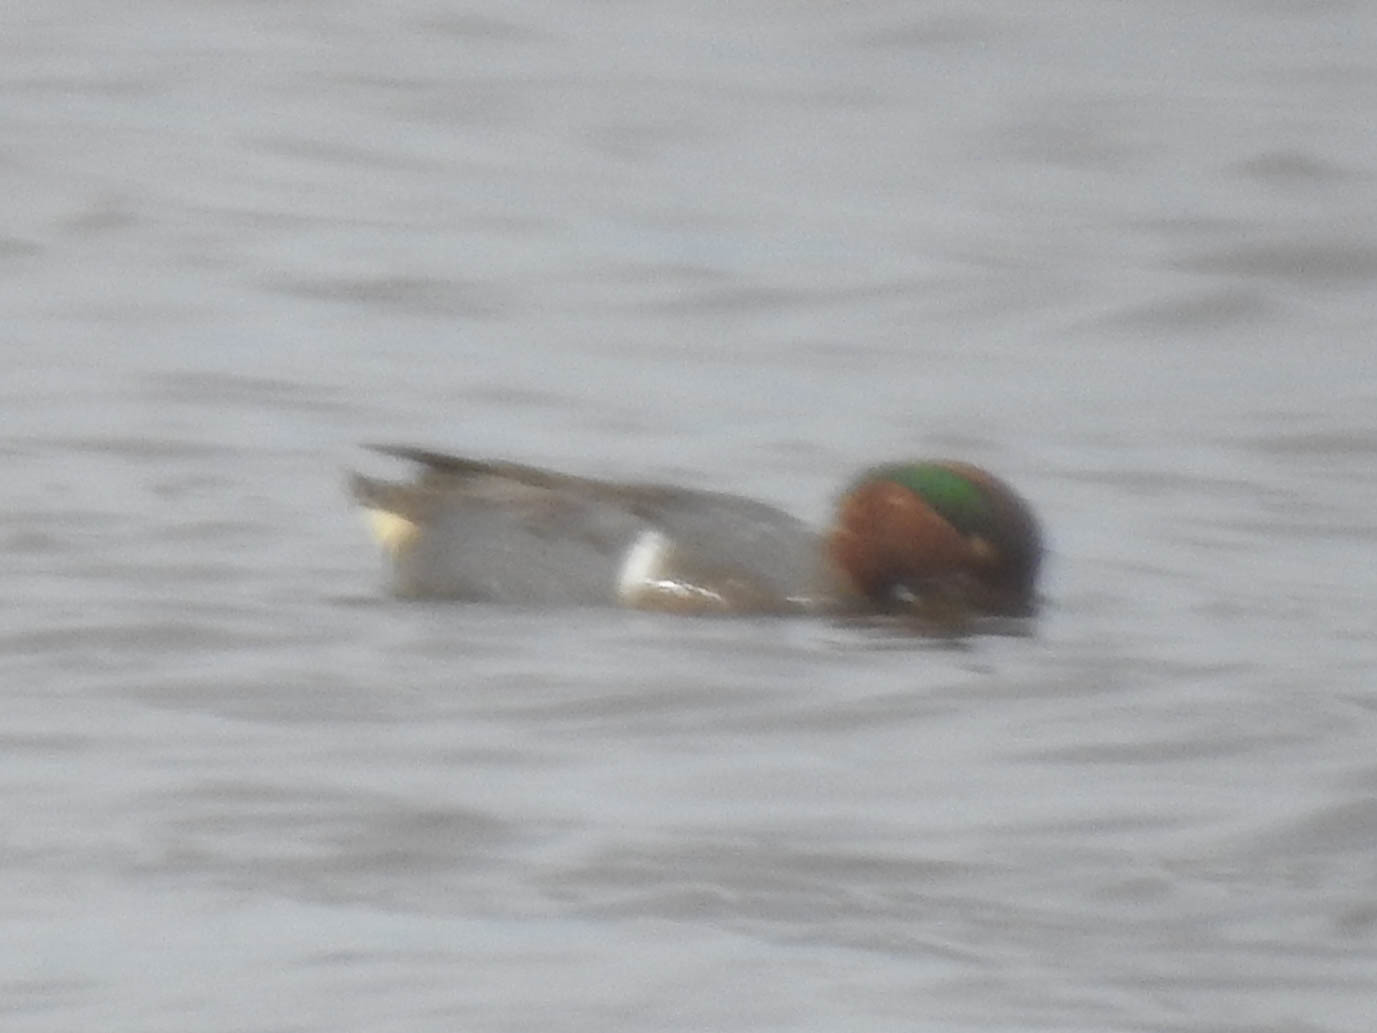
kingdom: Animalia
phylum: Chordata
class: Aves
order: Anseriformes
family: Anatidae
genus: Anas
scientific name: Anas crecca
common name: Eurasian teal
